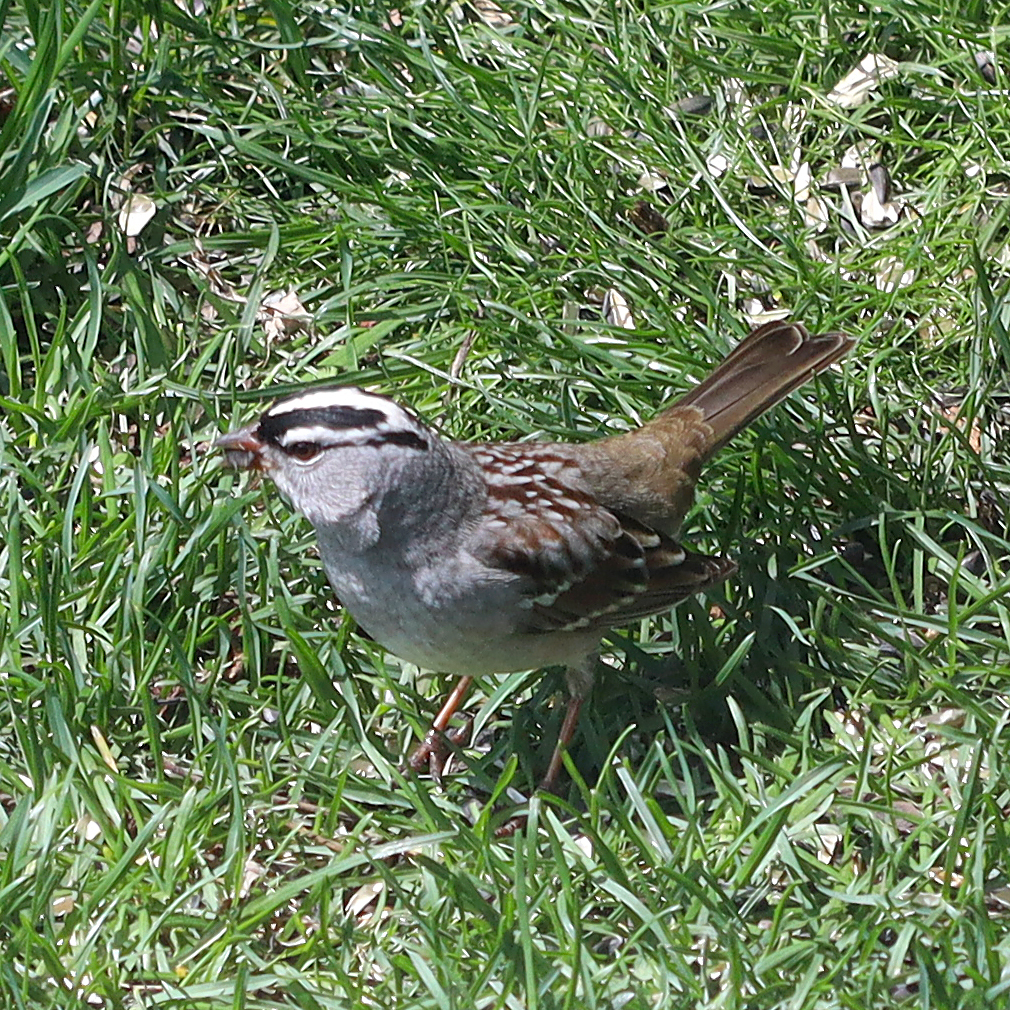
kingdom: Animalia
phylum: Chordata
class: Aves
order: Passeriformes
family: Passerellidae
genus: Zonotrichia
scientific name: Zonotrichia leucophrys
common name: White-crowned sparrow
